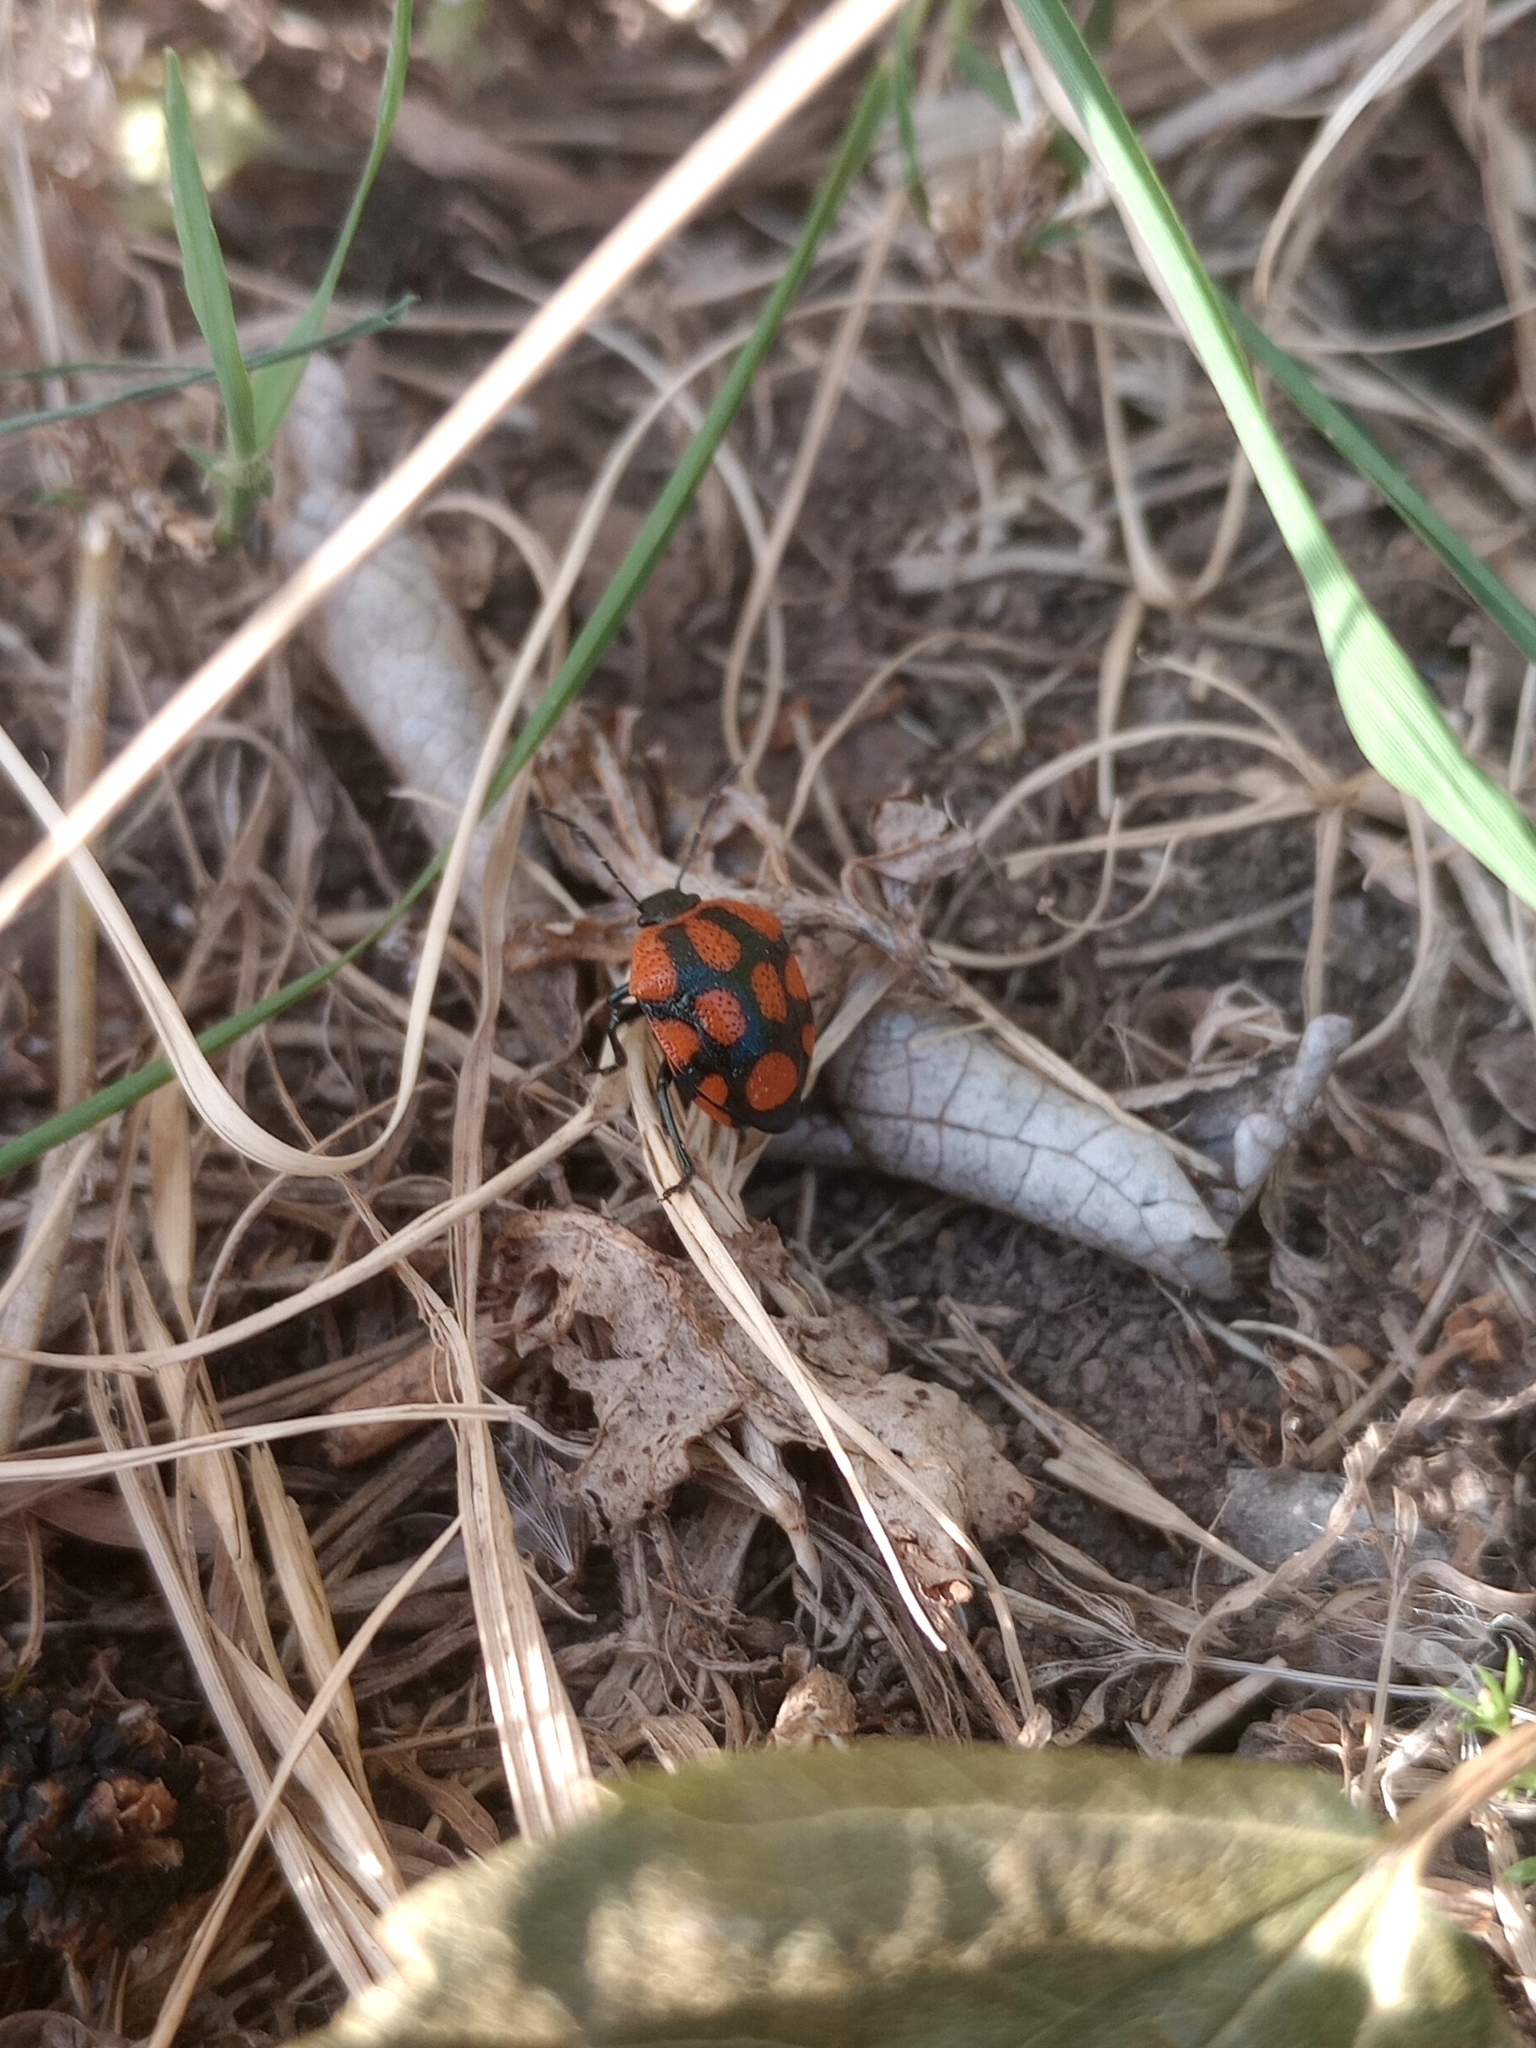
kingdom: Animalia
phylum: Arthropoda
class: Insecta
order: Hemiptera
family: Pentatomidae
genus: Stiretrus
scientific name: Stiretrus
